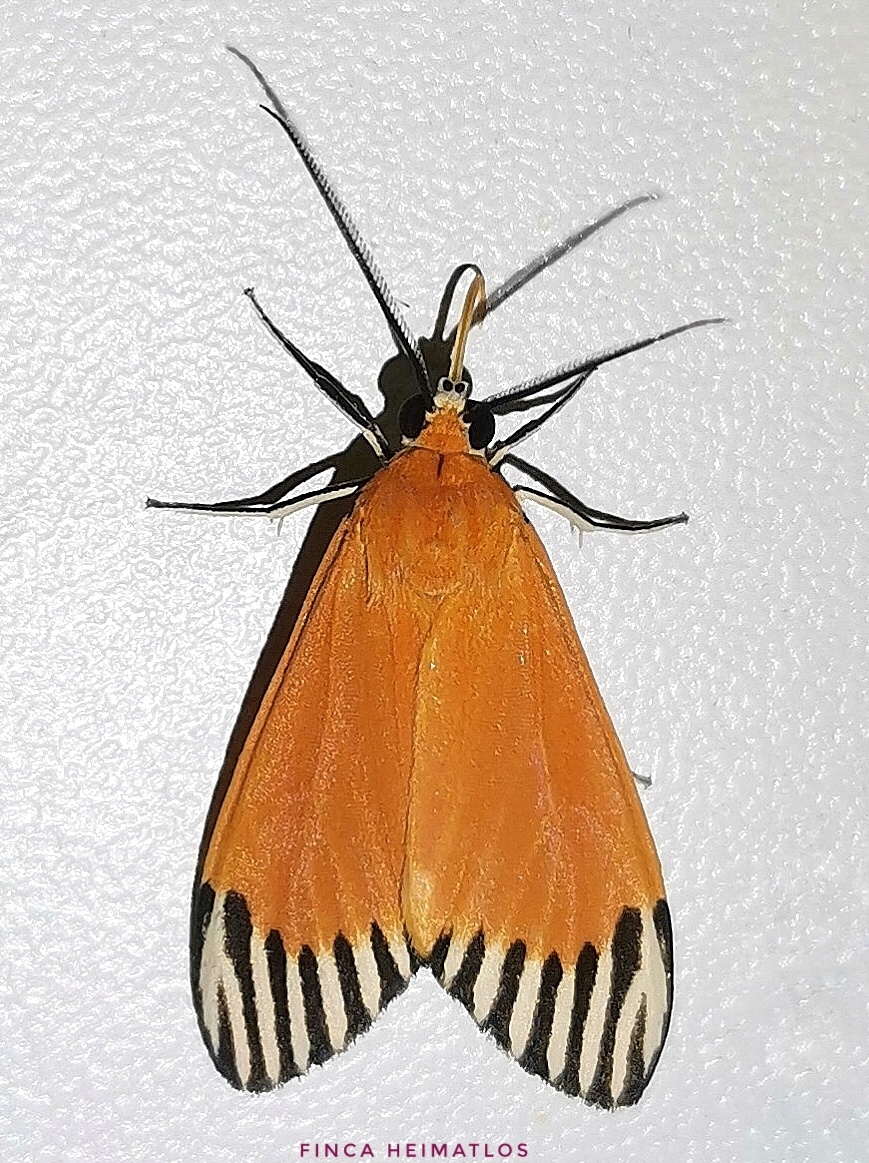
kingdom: Animalia
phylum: Arthropoda
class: Insecta
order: Lepidoptera
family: Erebidae
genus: Uranophora
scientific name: Uranophora walkeri
